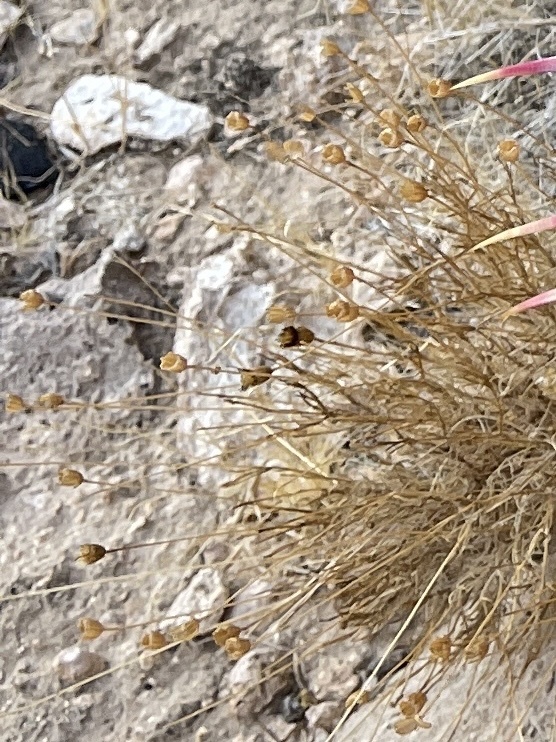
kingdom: Plantae
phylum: Tracheophyta
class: Magnoliopsida
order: Asterales
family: Asteraceae
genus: Thymophylla
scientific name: Thymophylla pentachaeta
